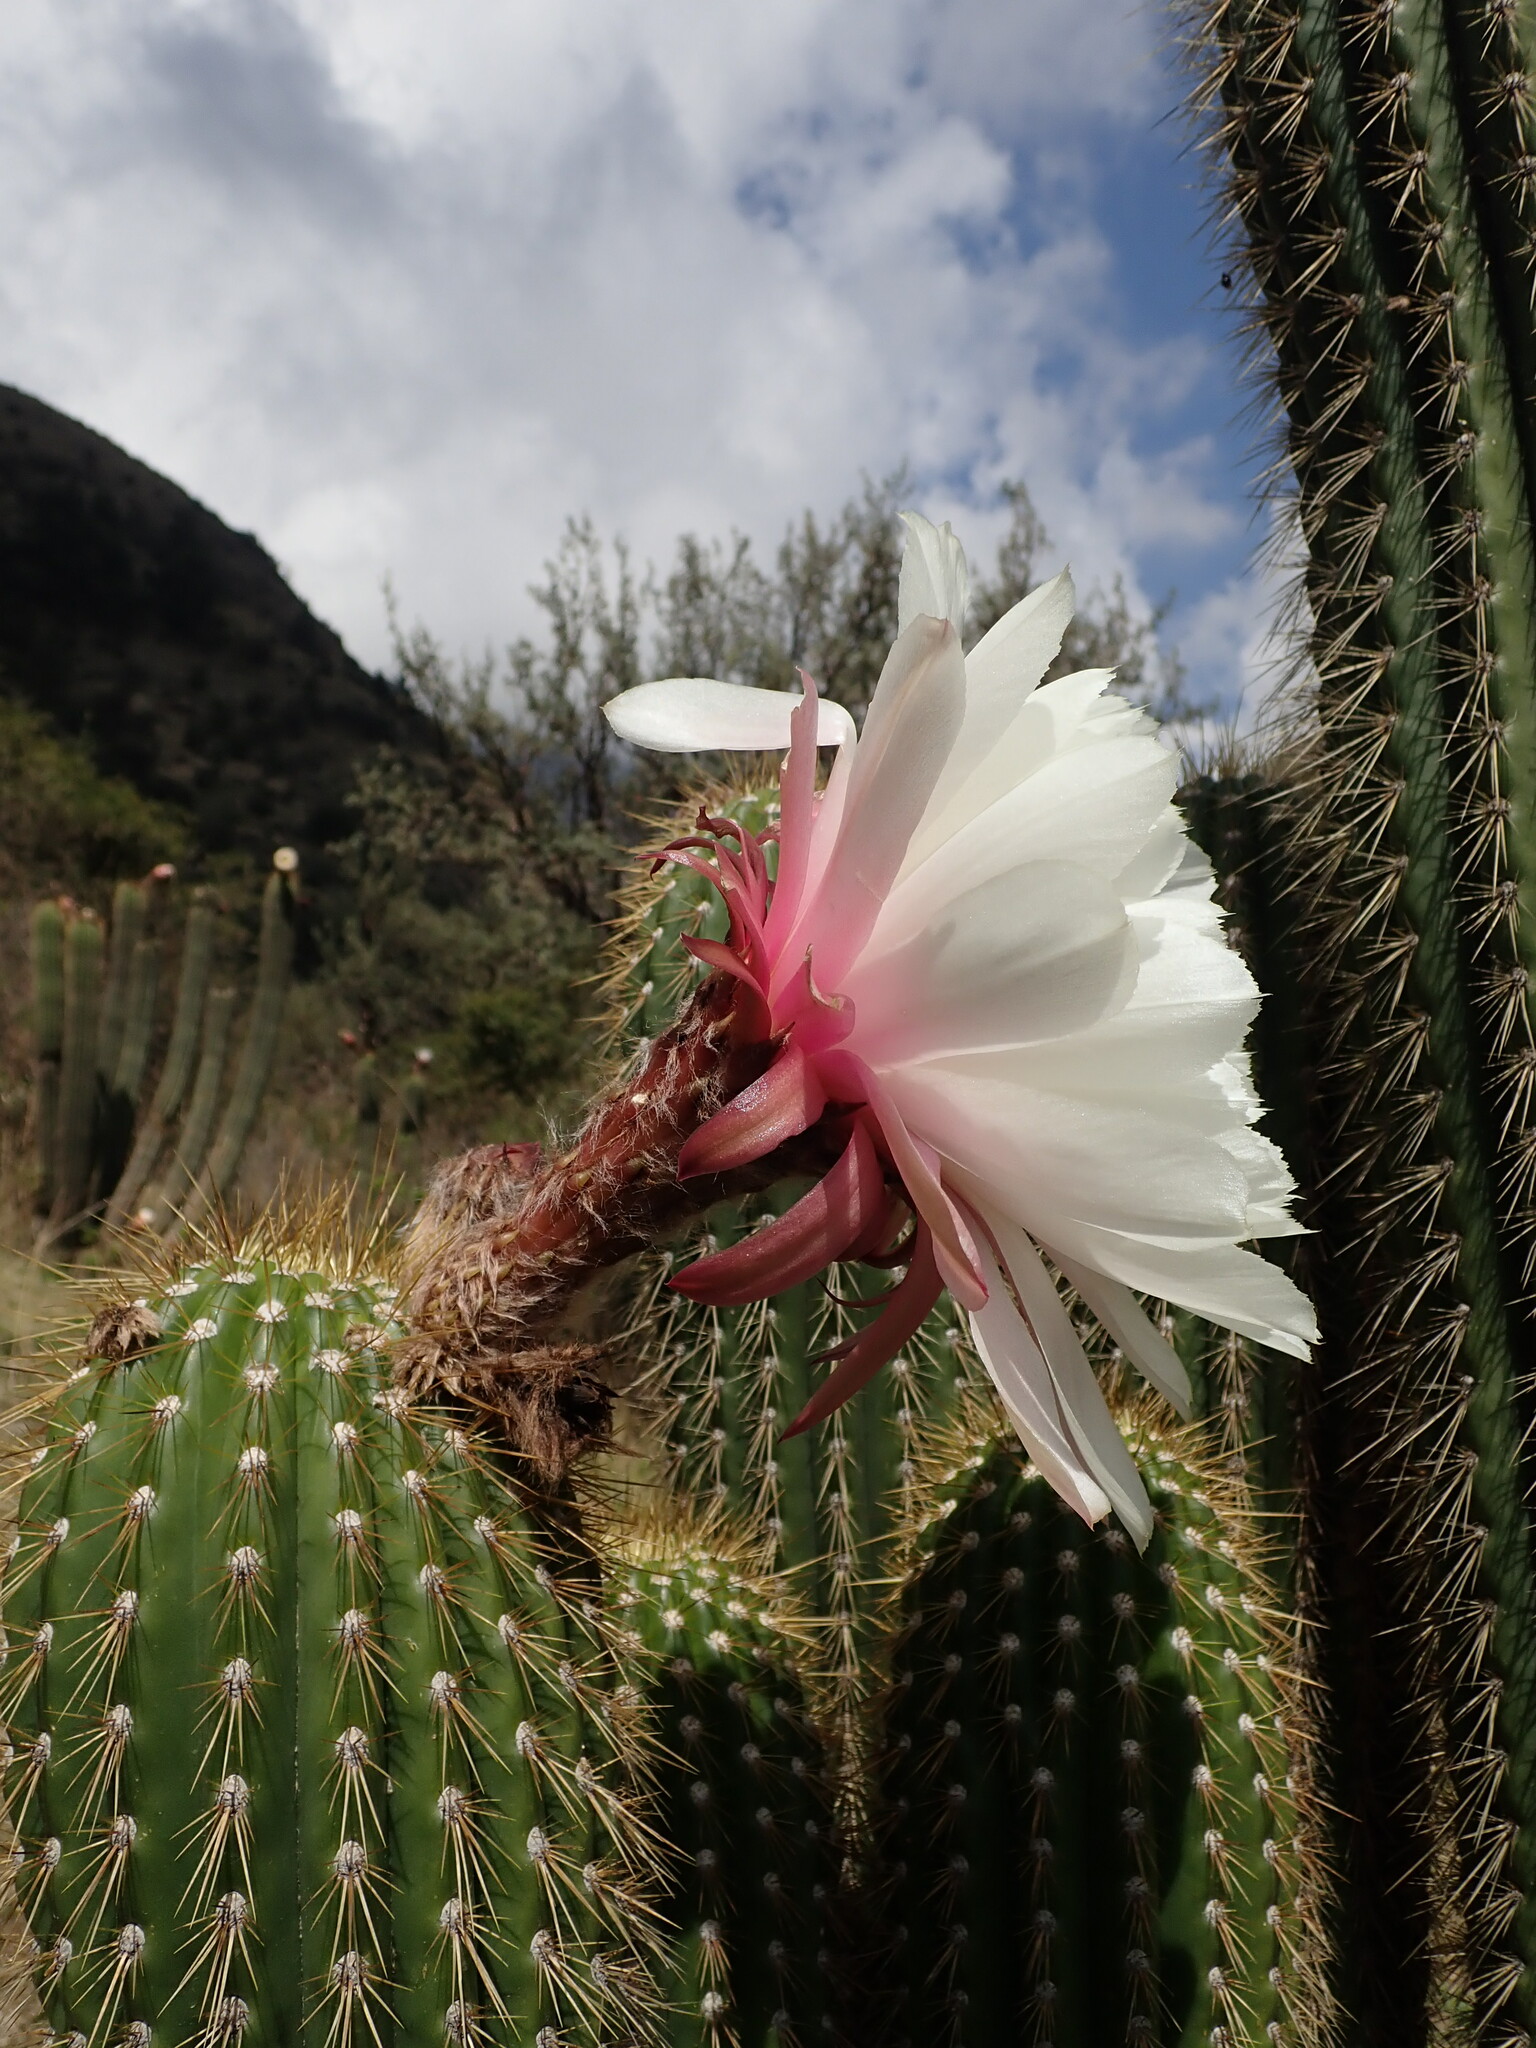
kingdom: Plantae
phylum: Tracheophyta
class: Magnoliopsida
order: Caryophyllales
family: Cactaceae
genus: Leucostele
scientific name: Leucostele tunariensis
